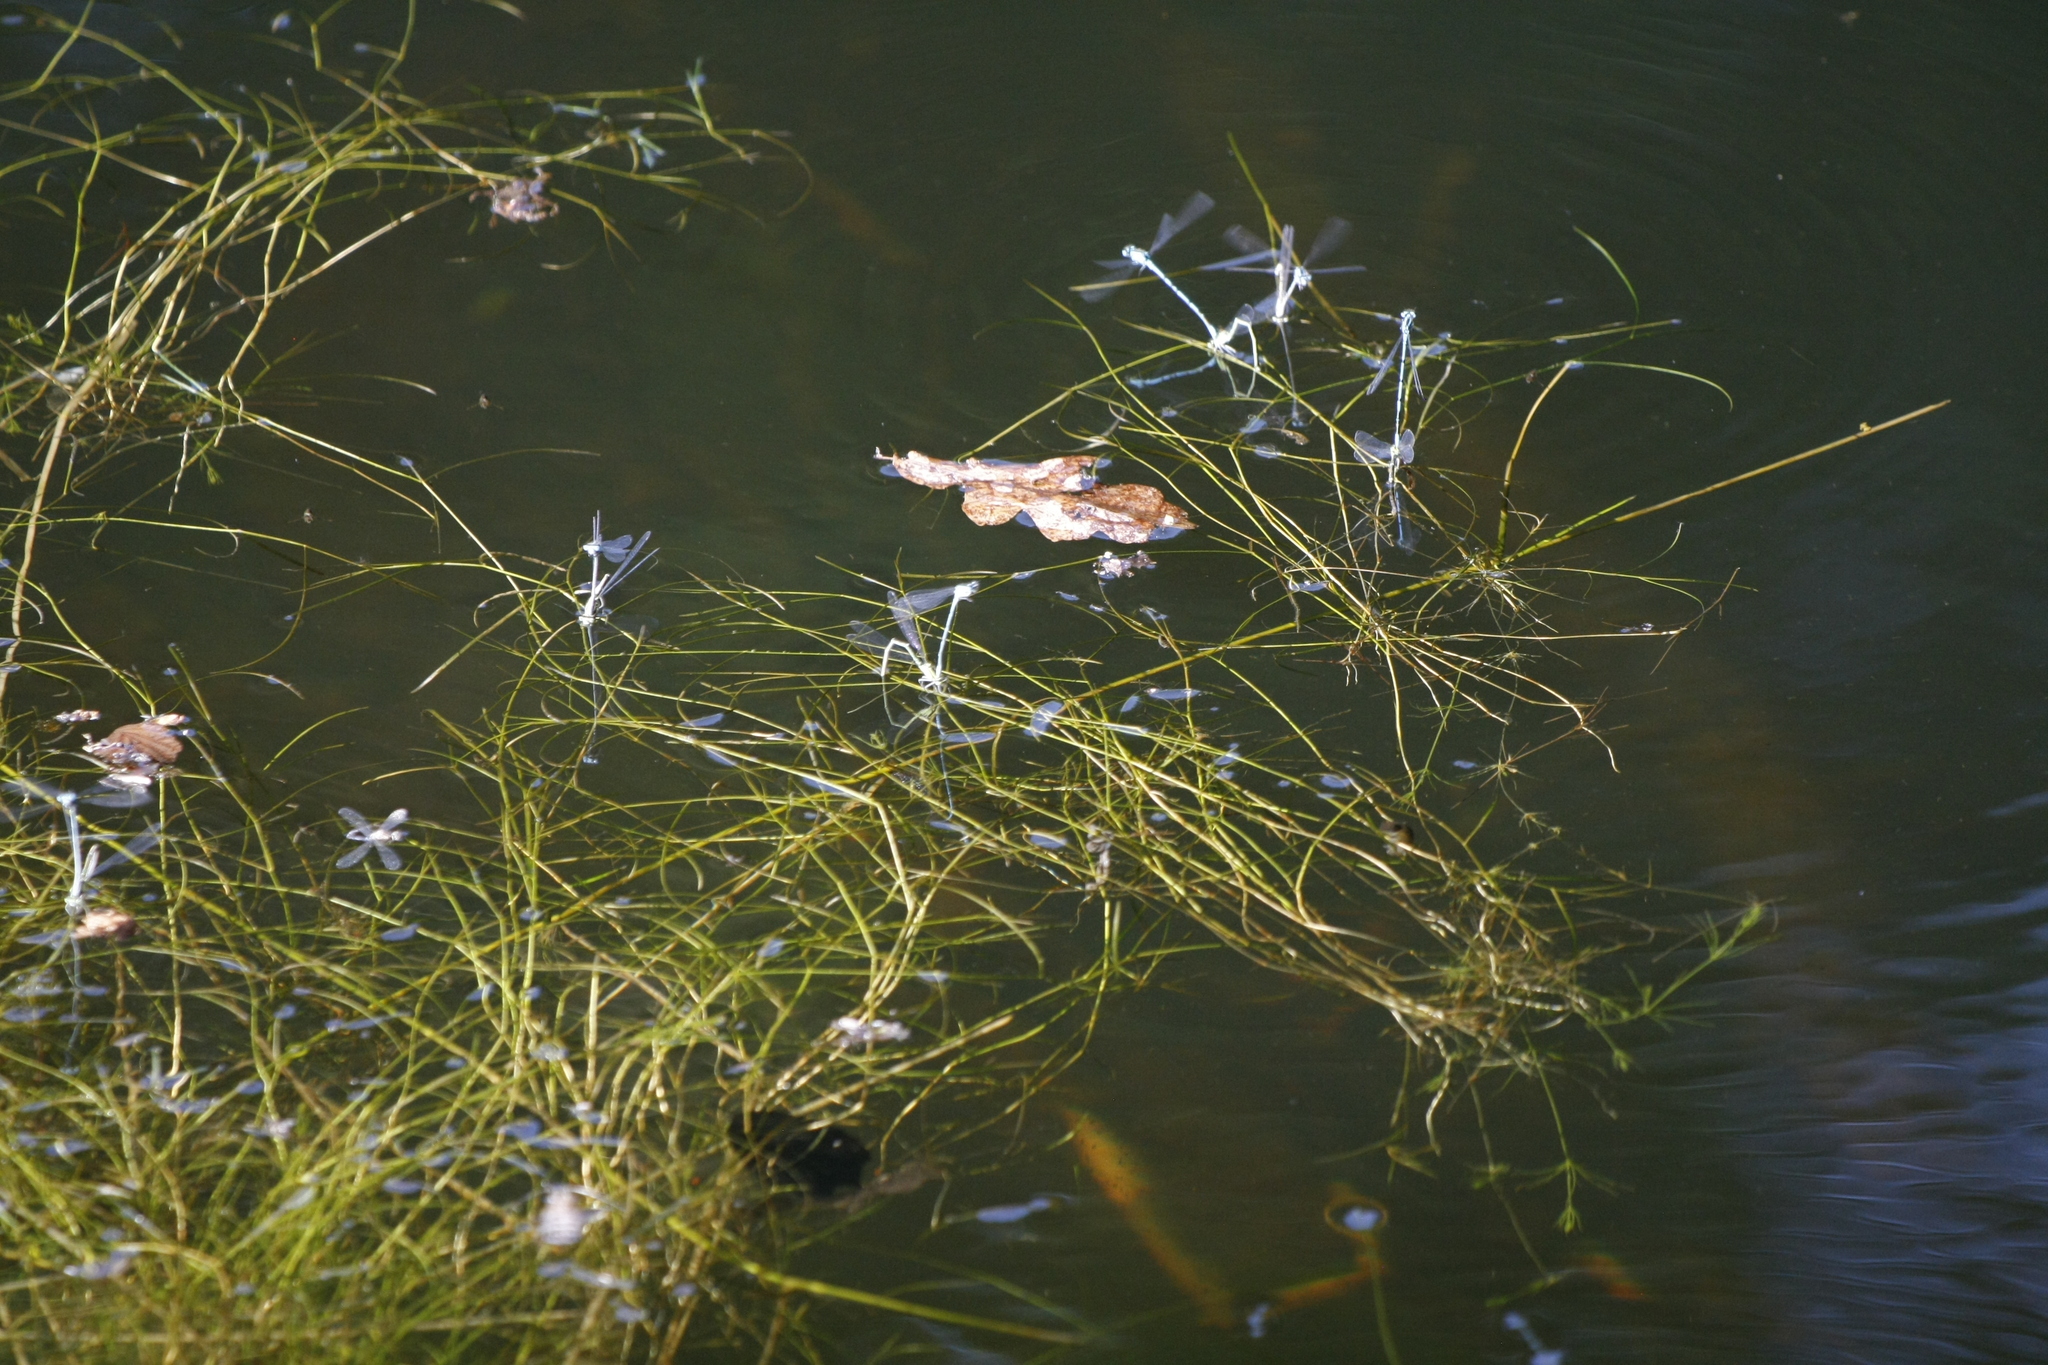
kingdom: Animalia
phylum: Arthropoda
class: Insecta
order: Odonata
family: Coenagrionidae
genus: Coenagrion
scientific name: Coenagrion puella
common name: Azure damselfly
